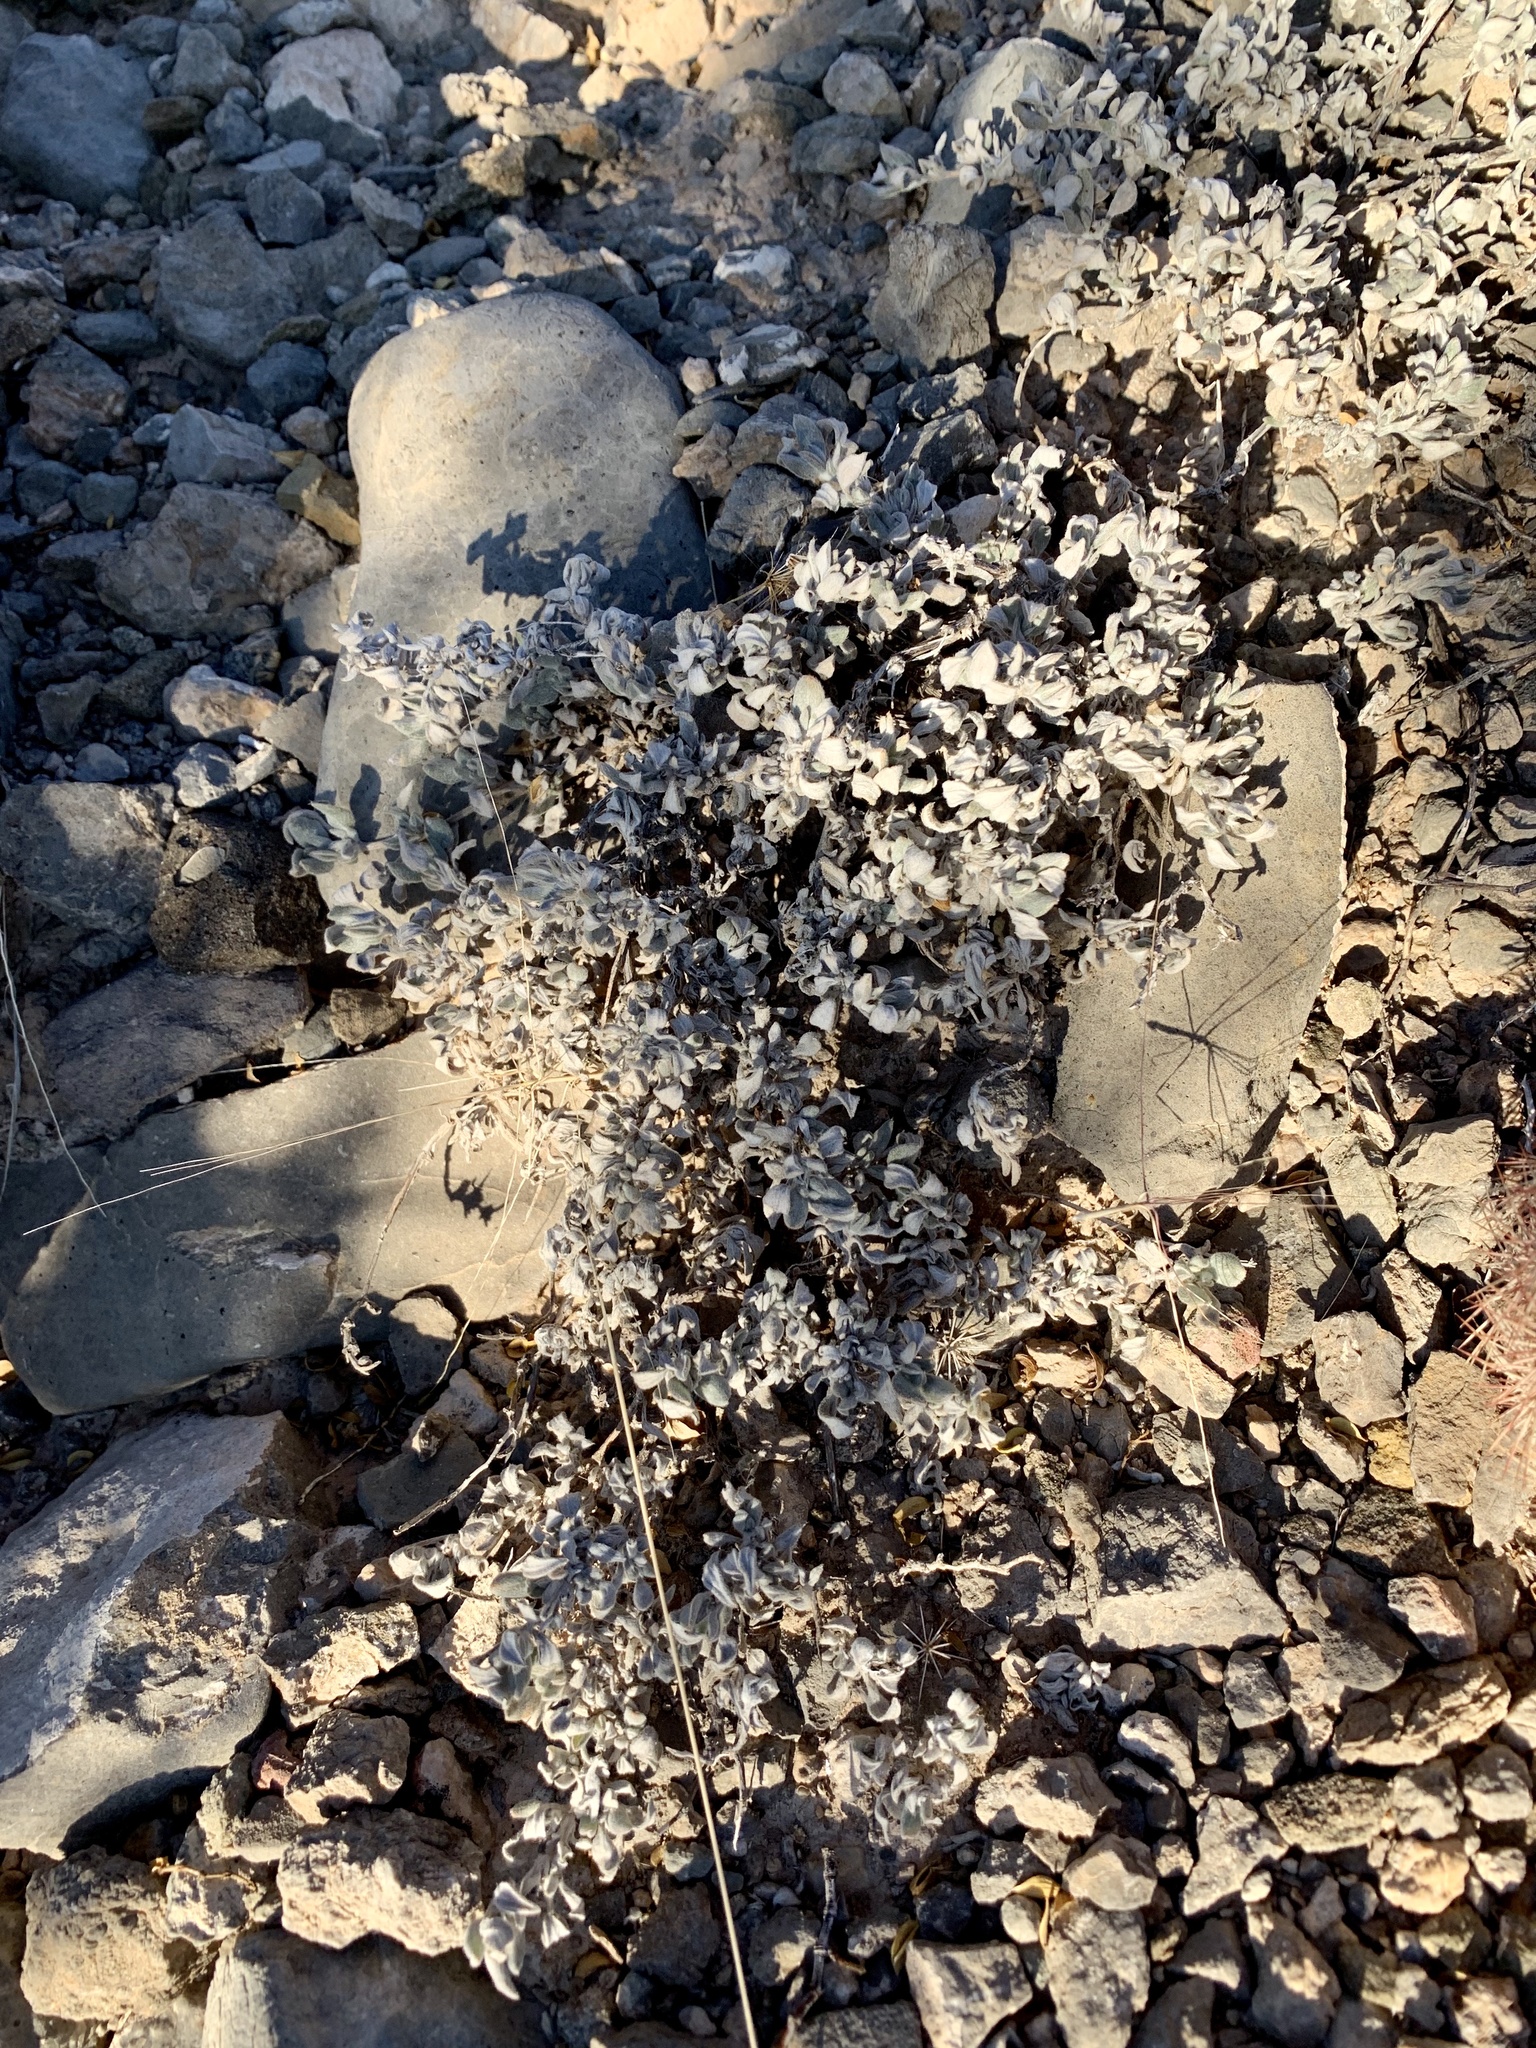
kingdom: Plantae
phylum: Tracheophyta
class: Magnoliopsida
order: Boraginales
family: Ehretiaceae
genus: Tiquilia
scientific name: Tiquilia canescens
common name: Hairy tiquilia
